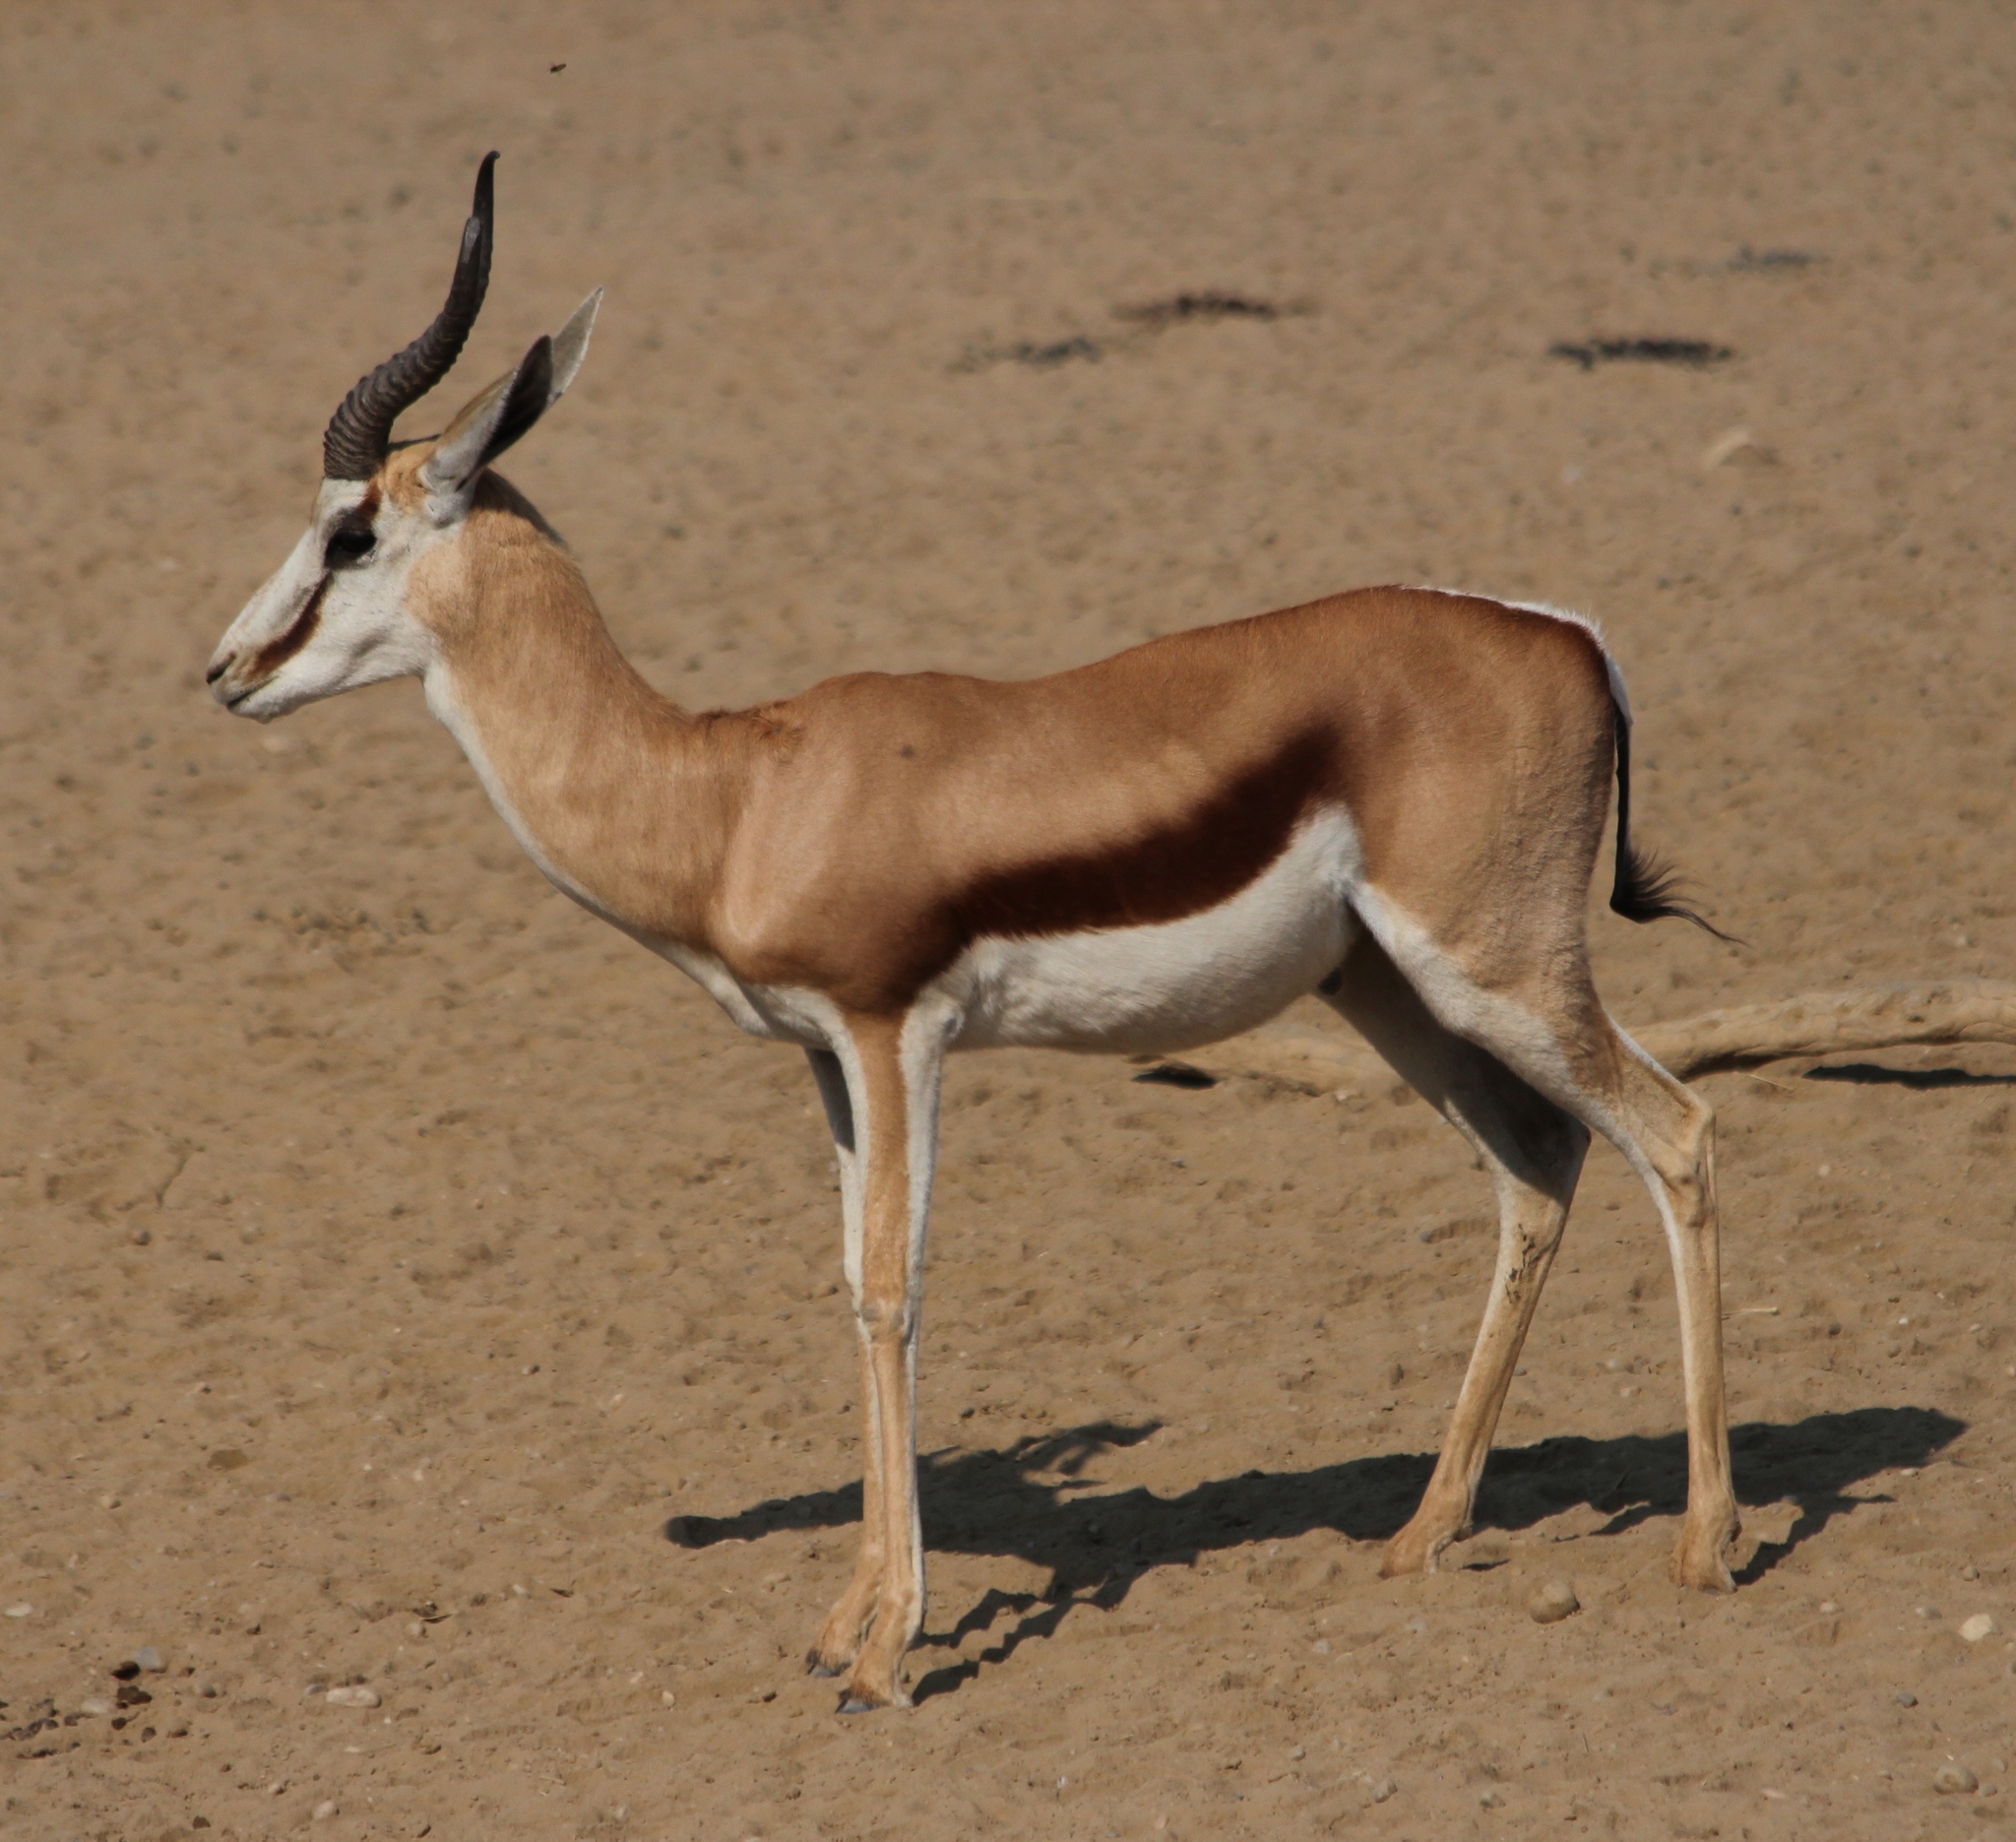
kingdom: Animalia
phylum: Chordata
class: Mammalia
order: Artiodactyla
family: Bovidae
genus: Antidorcas
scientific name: Antidorcas marsupialis
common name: Springbok
